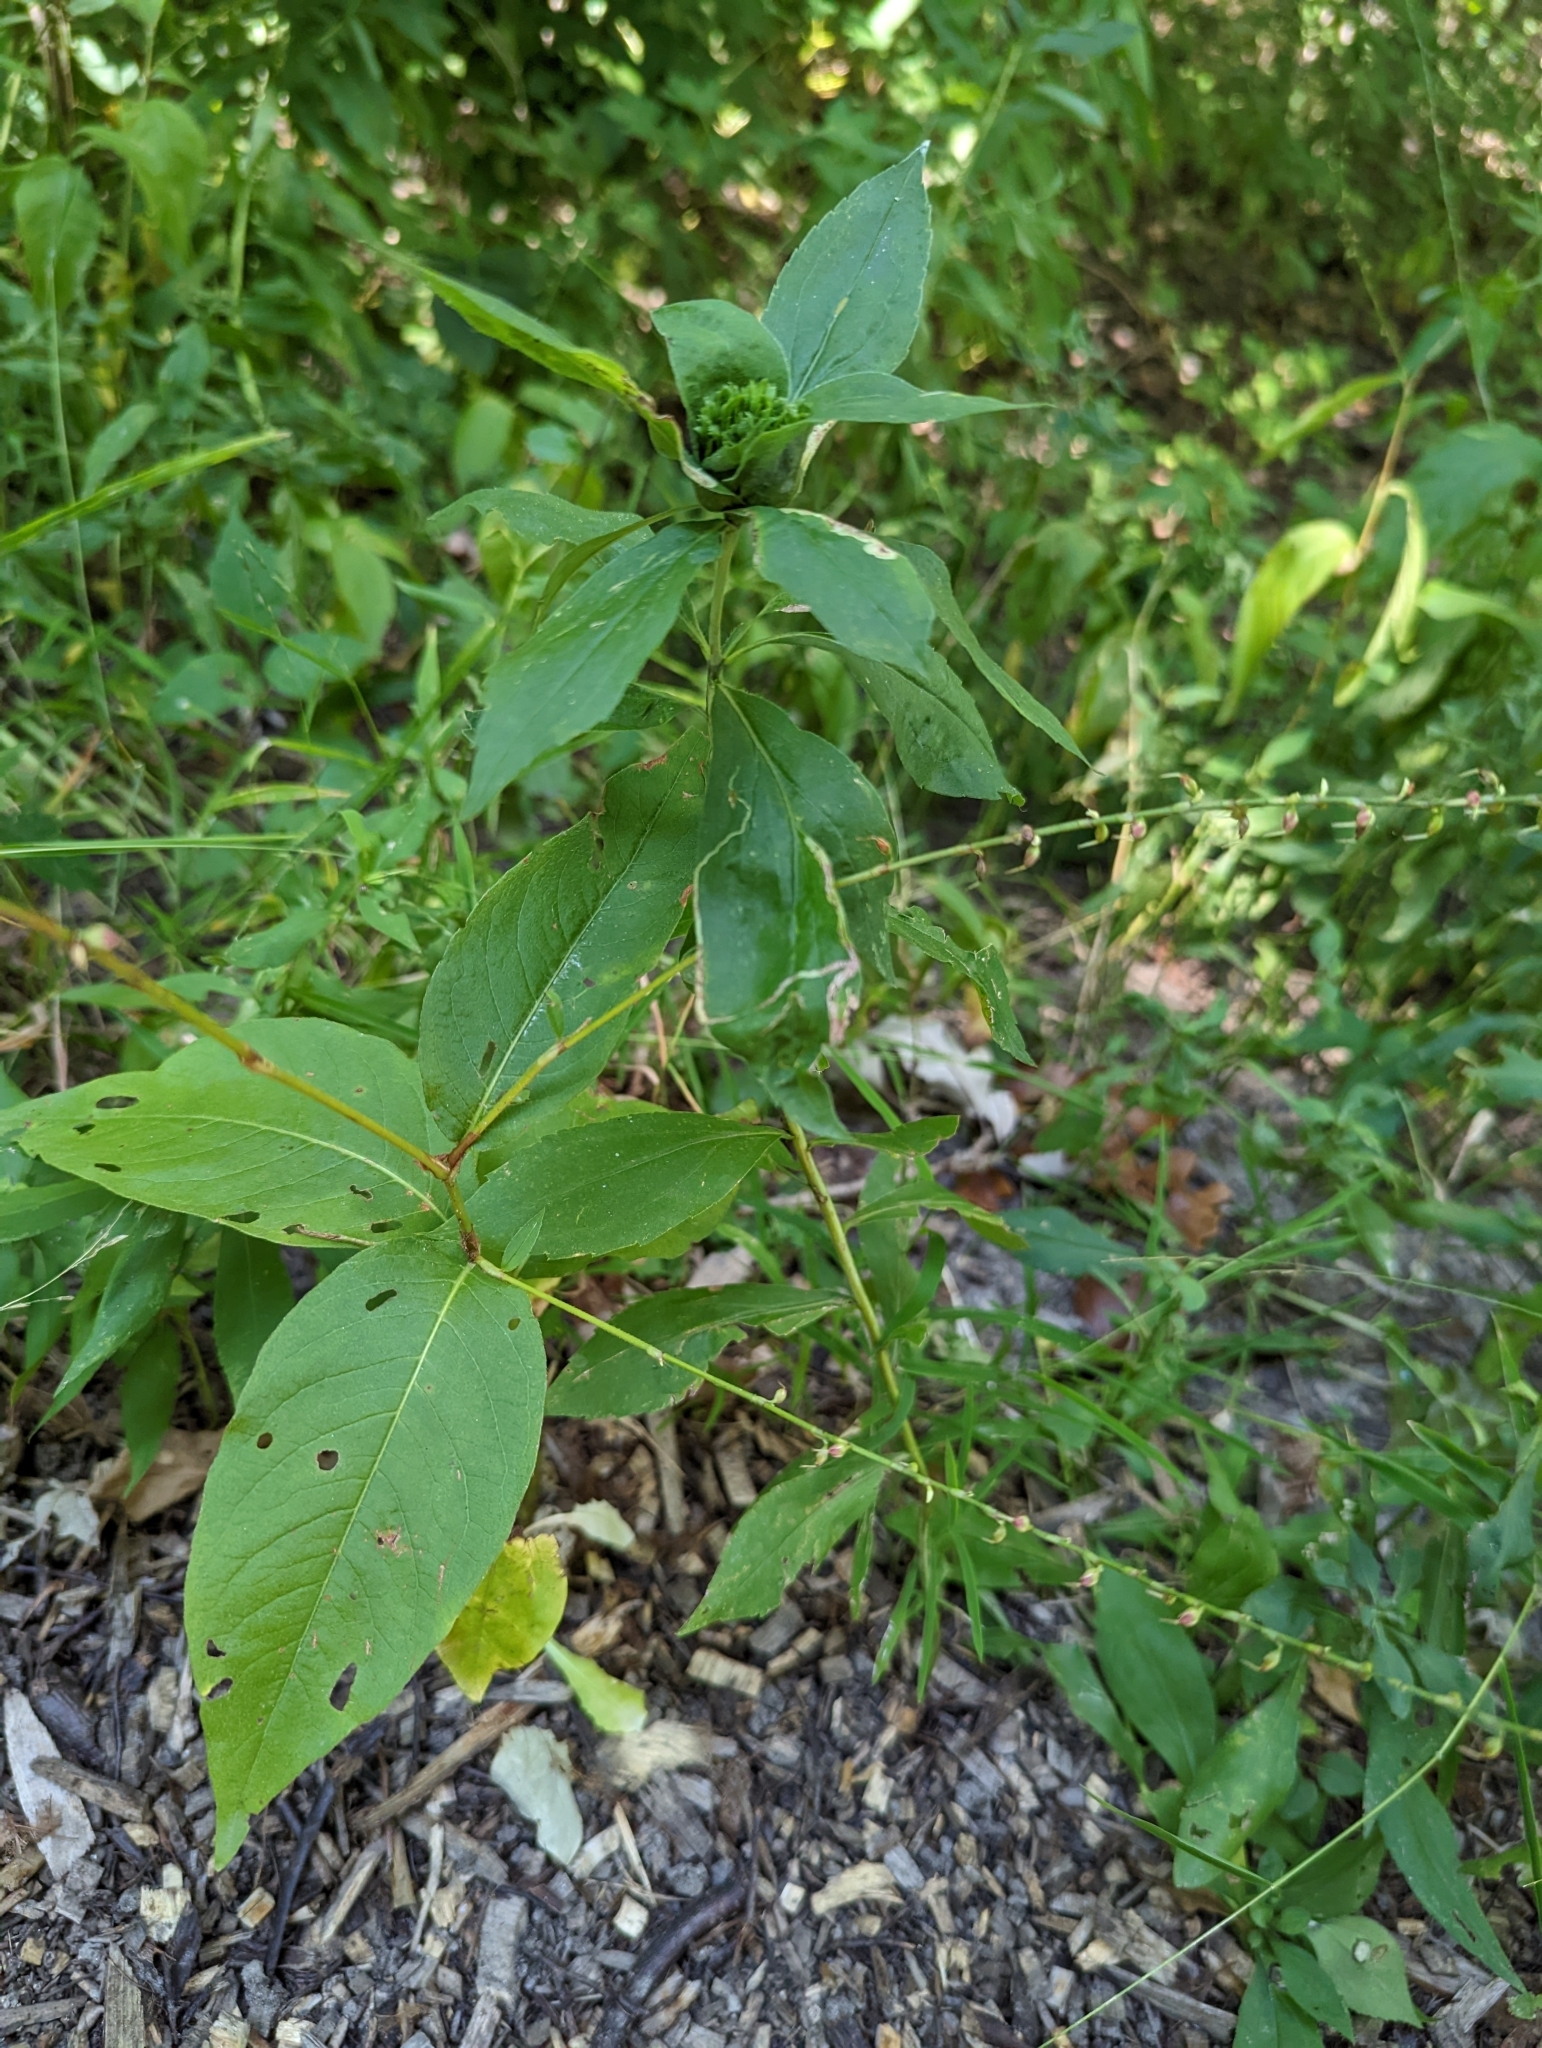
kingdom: Plantae
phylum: Tracheophyta
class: Magnoliopsida
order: Caryophyllales
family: Polygonaceae
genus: Persicaria
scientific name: Persicaria virginiana
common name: Jumpseed
